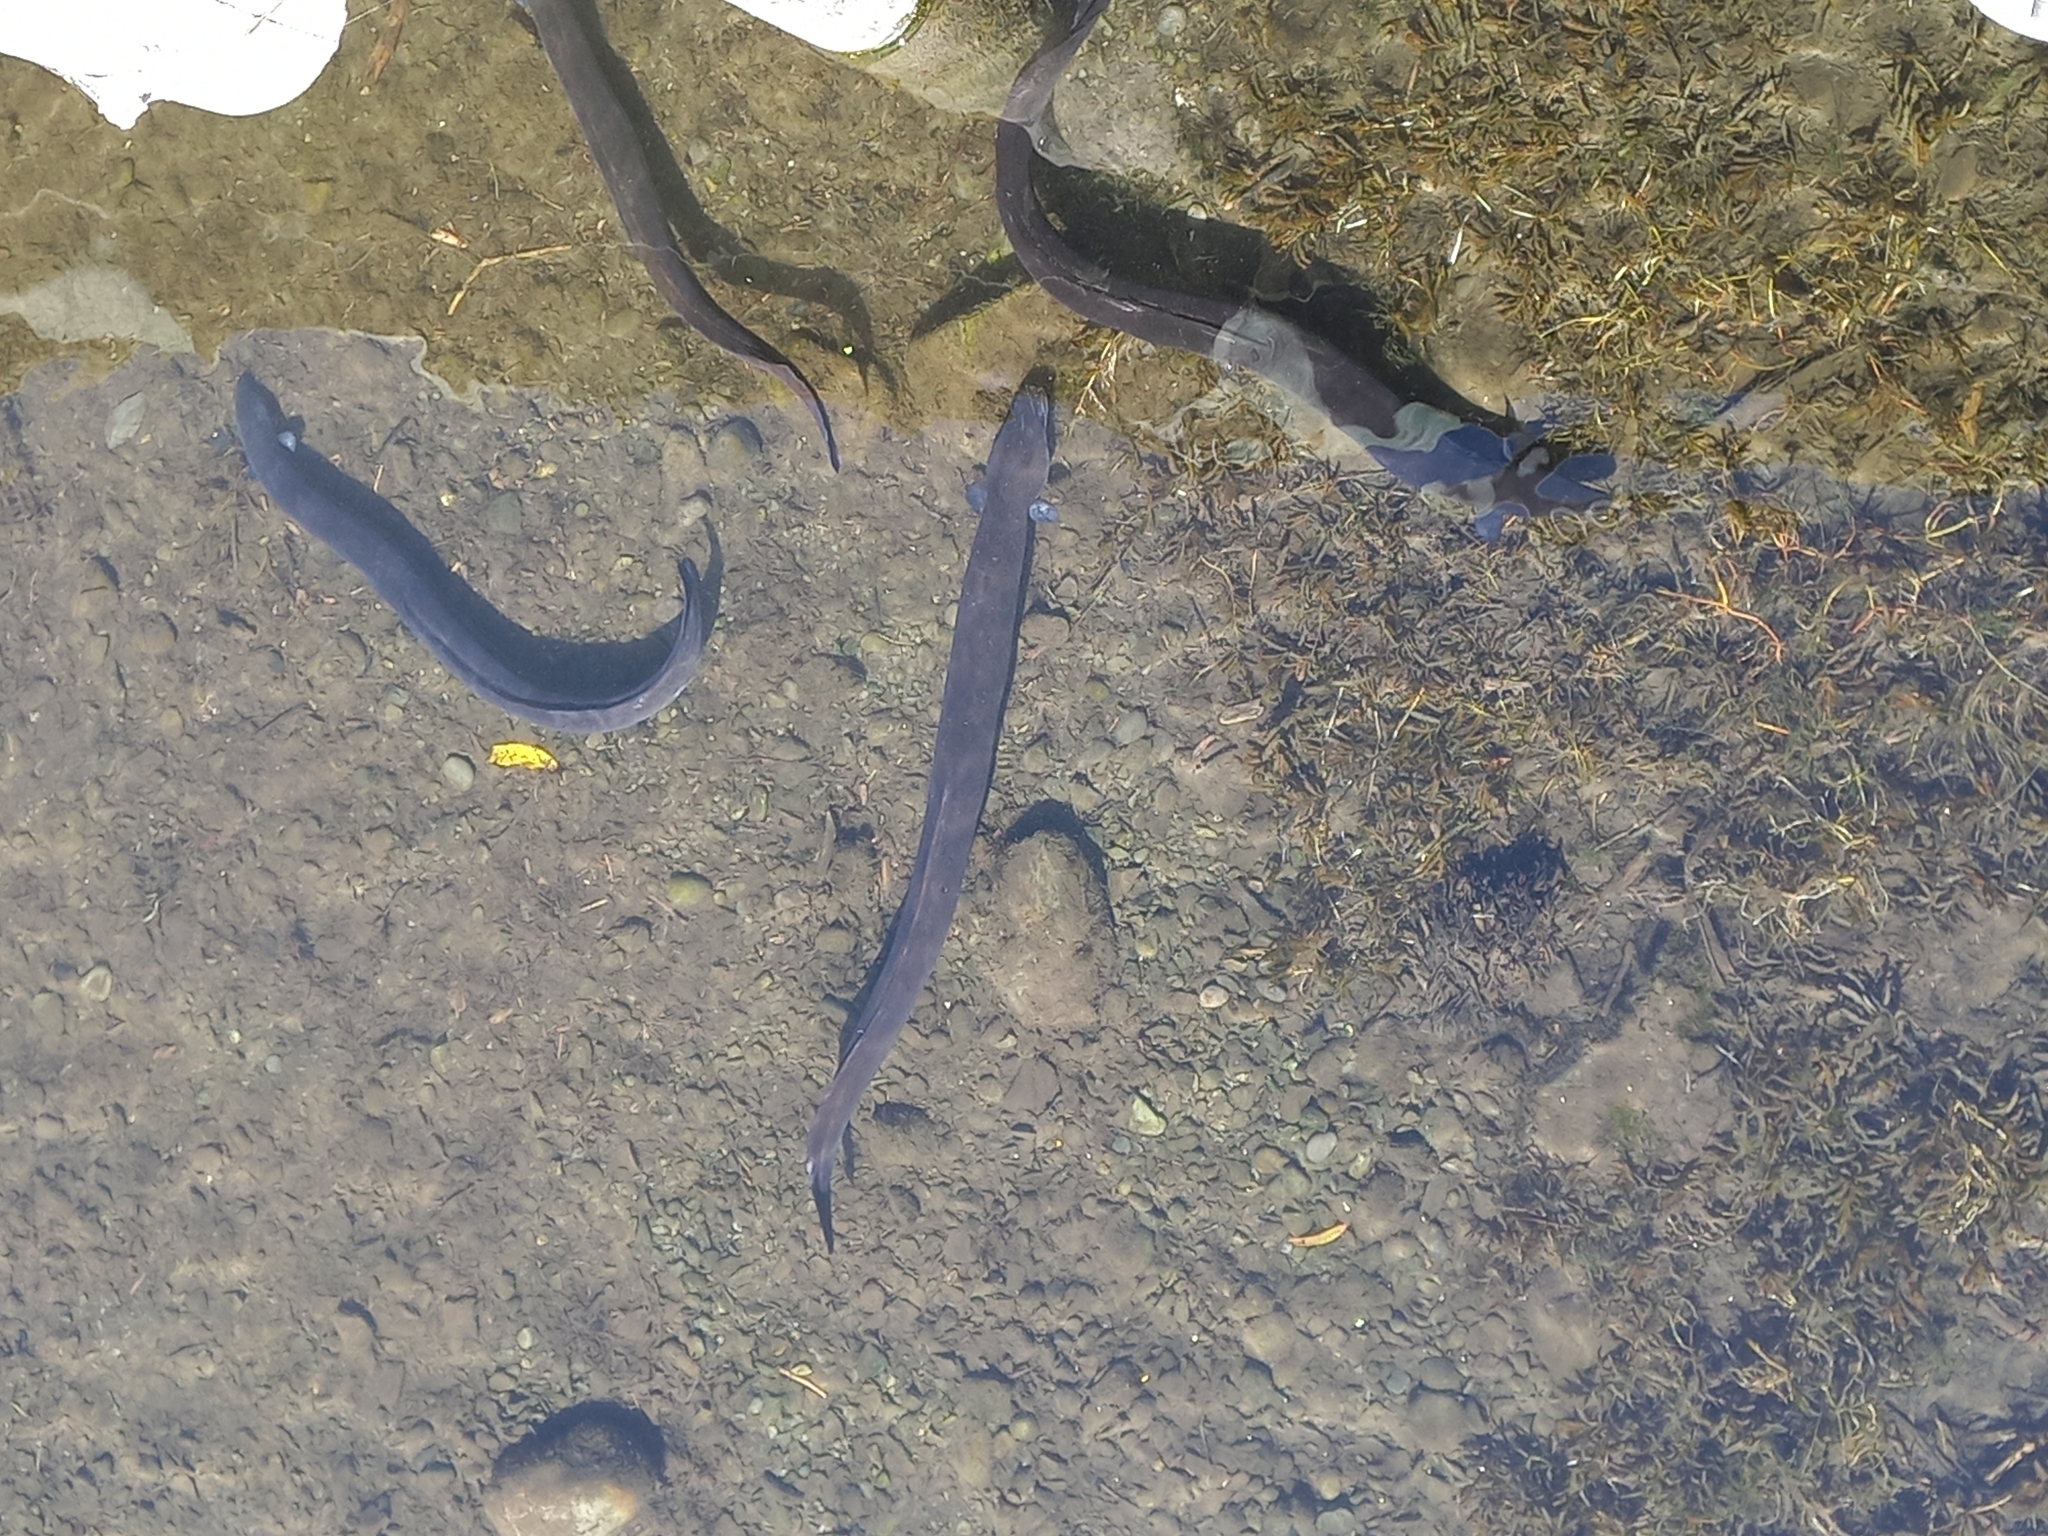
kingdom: Animalia
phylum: Chordata
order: Anguilliformes
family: Anguillidae
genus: Anguilla
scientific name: Anguilla australis
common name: Shortfin eel
